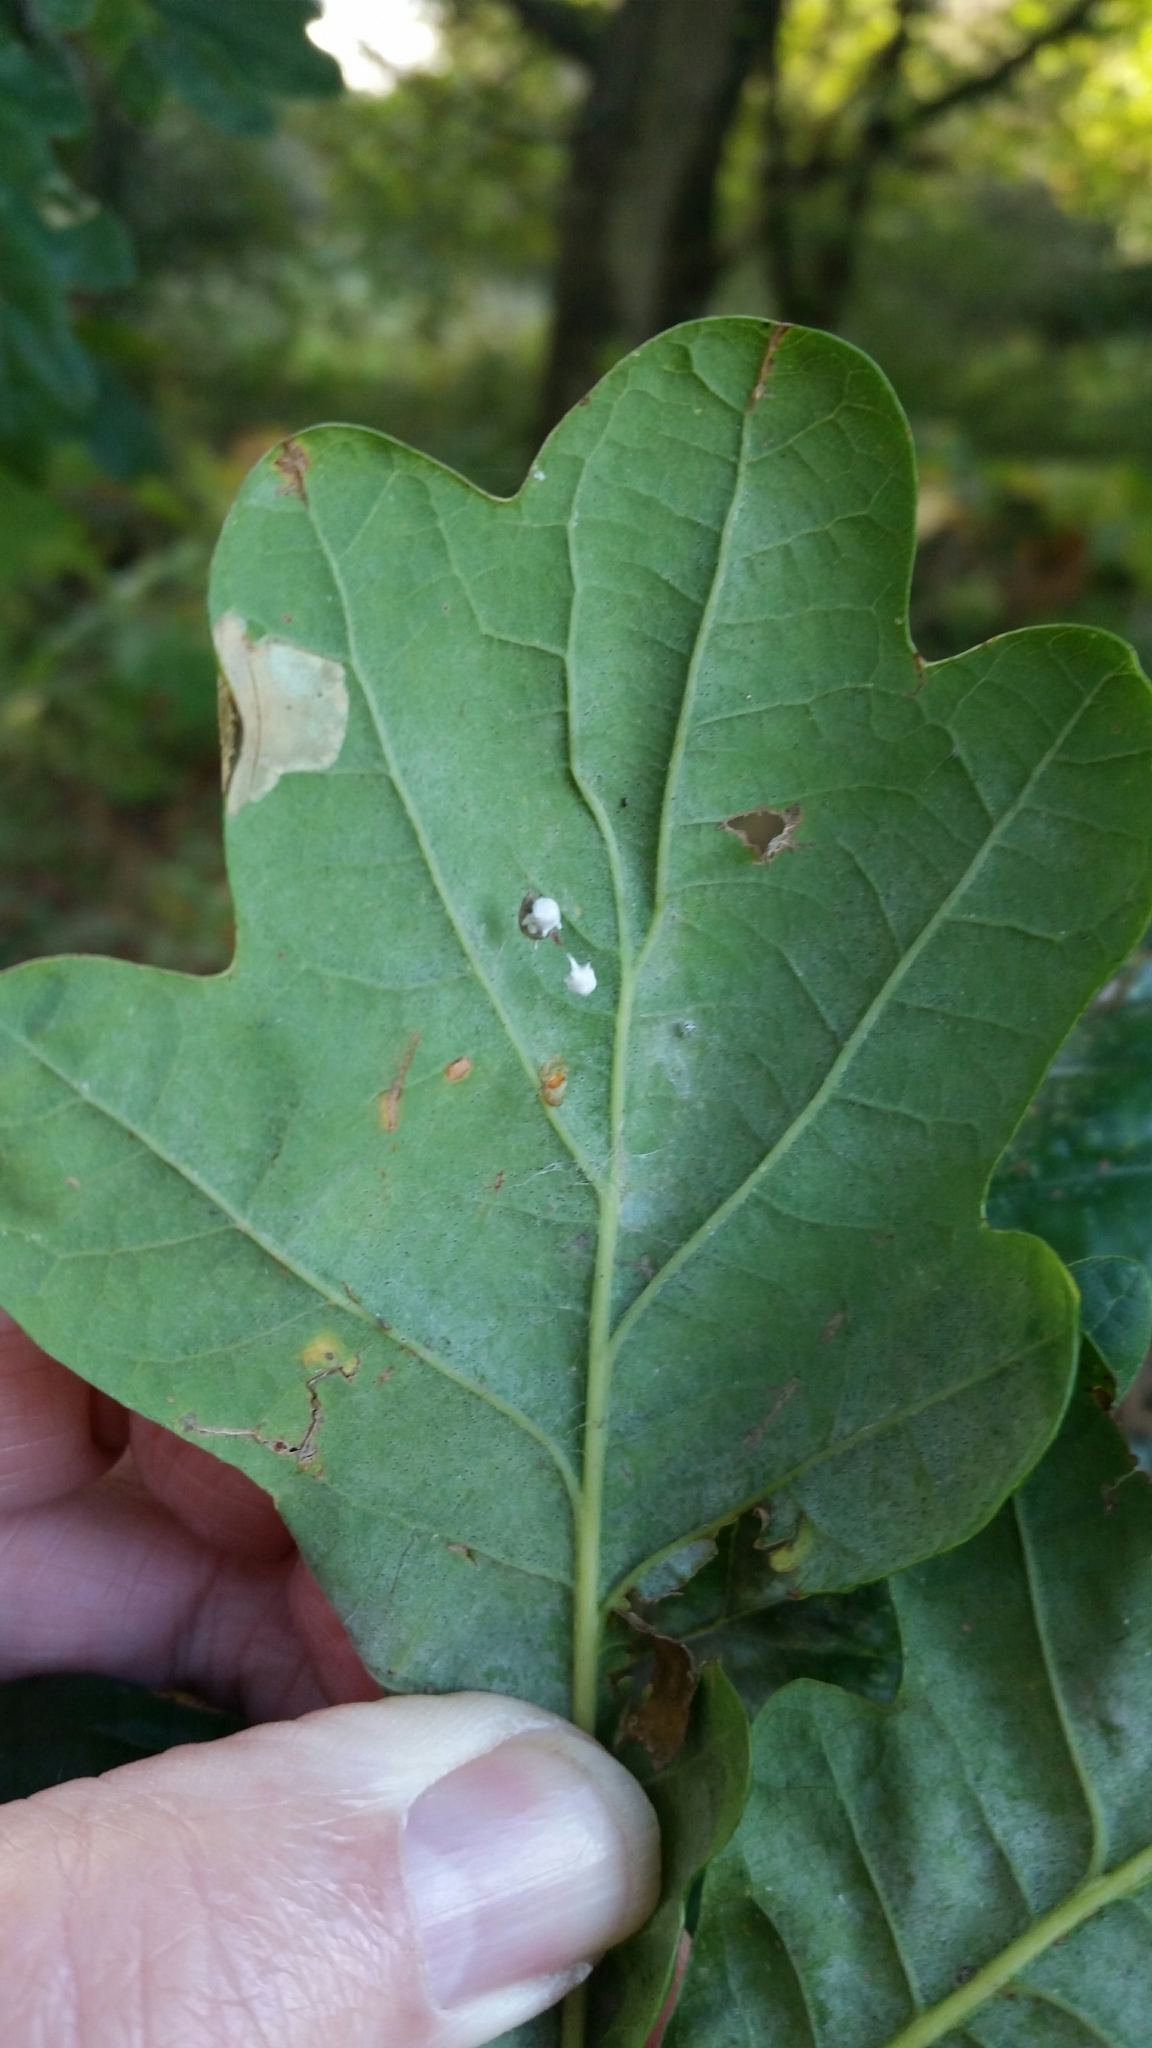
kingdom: Animalia
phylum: Arthropoda
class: Arachnida
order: Araneae
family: Theridiidae
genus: Paidiscura
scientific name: Paidiscura pallens
